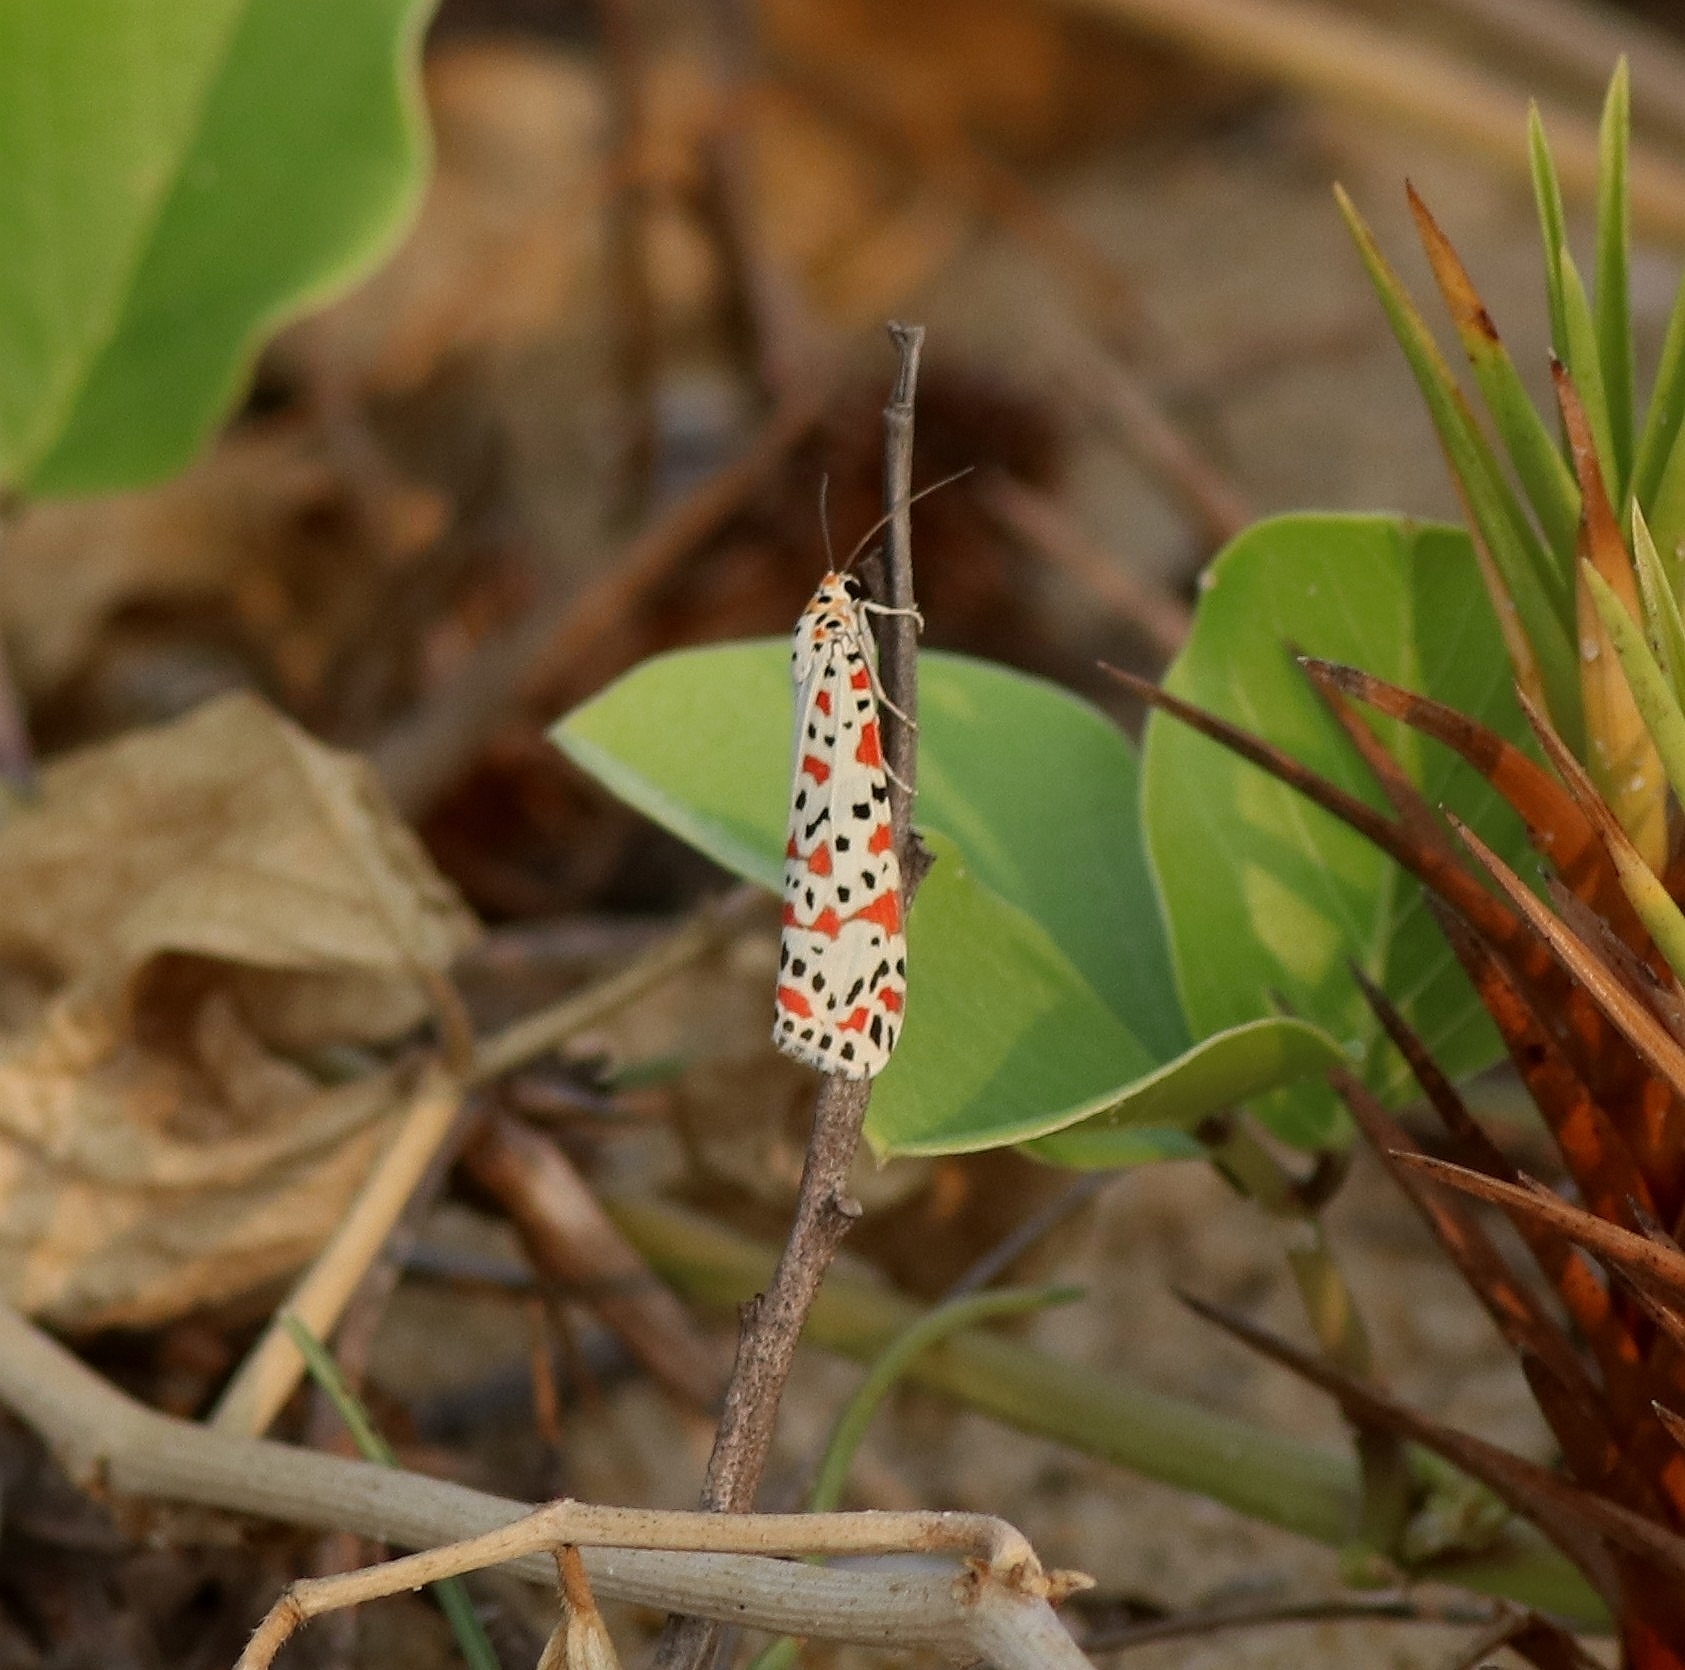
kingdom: Animalia
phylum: Arthropoda
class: Insecta
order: Lepidoptera
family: Erebidae
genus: Utetheisa
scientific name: Utetheisa lotrix
